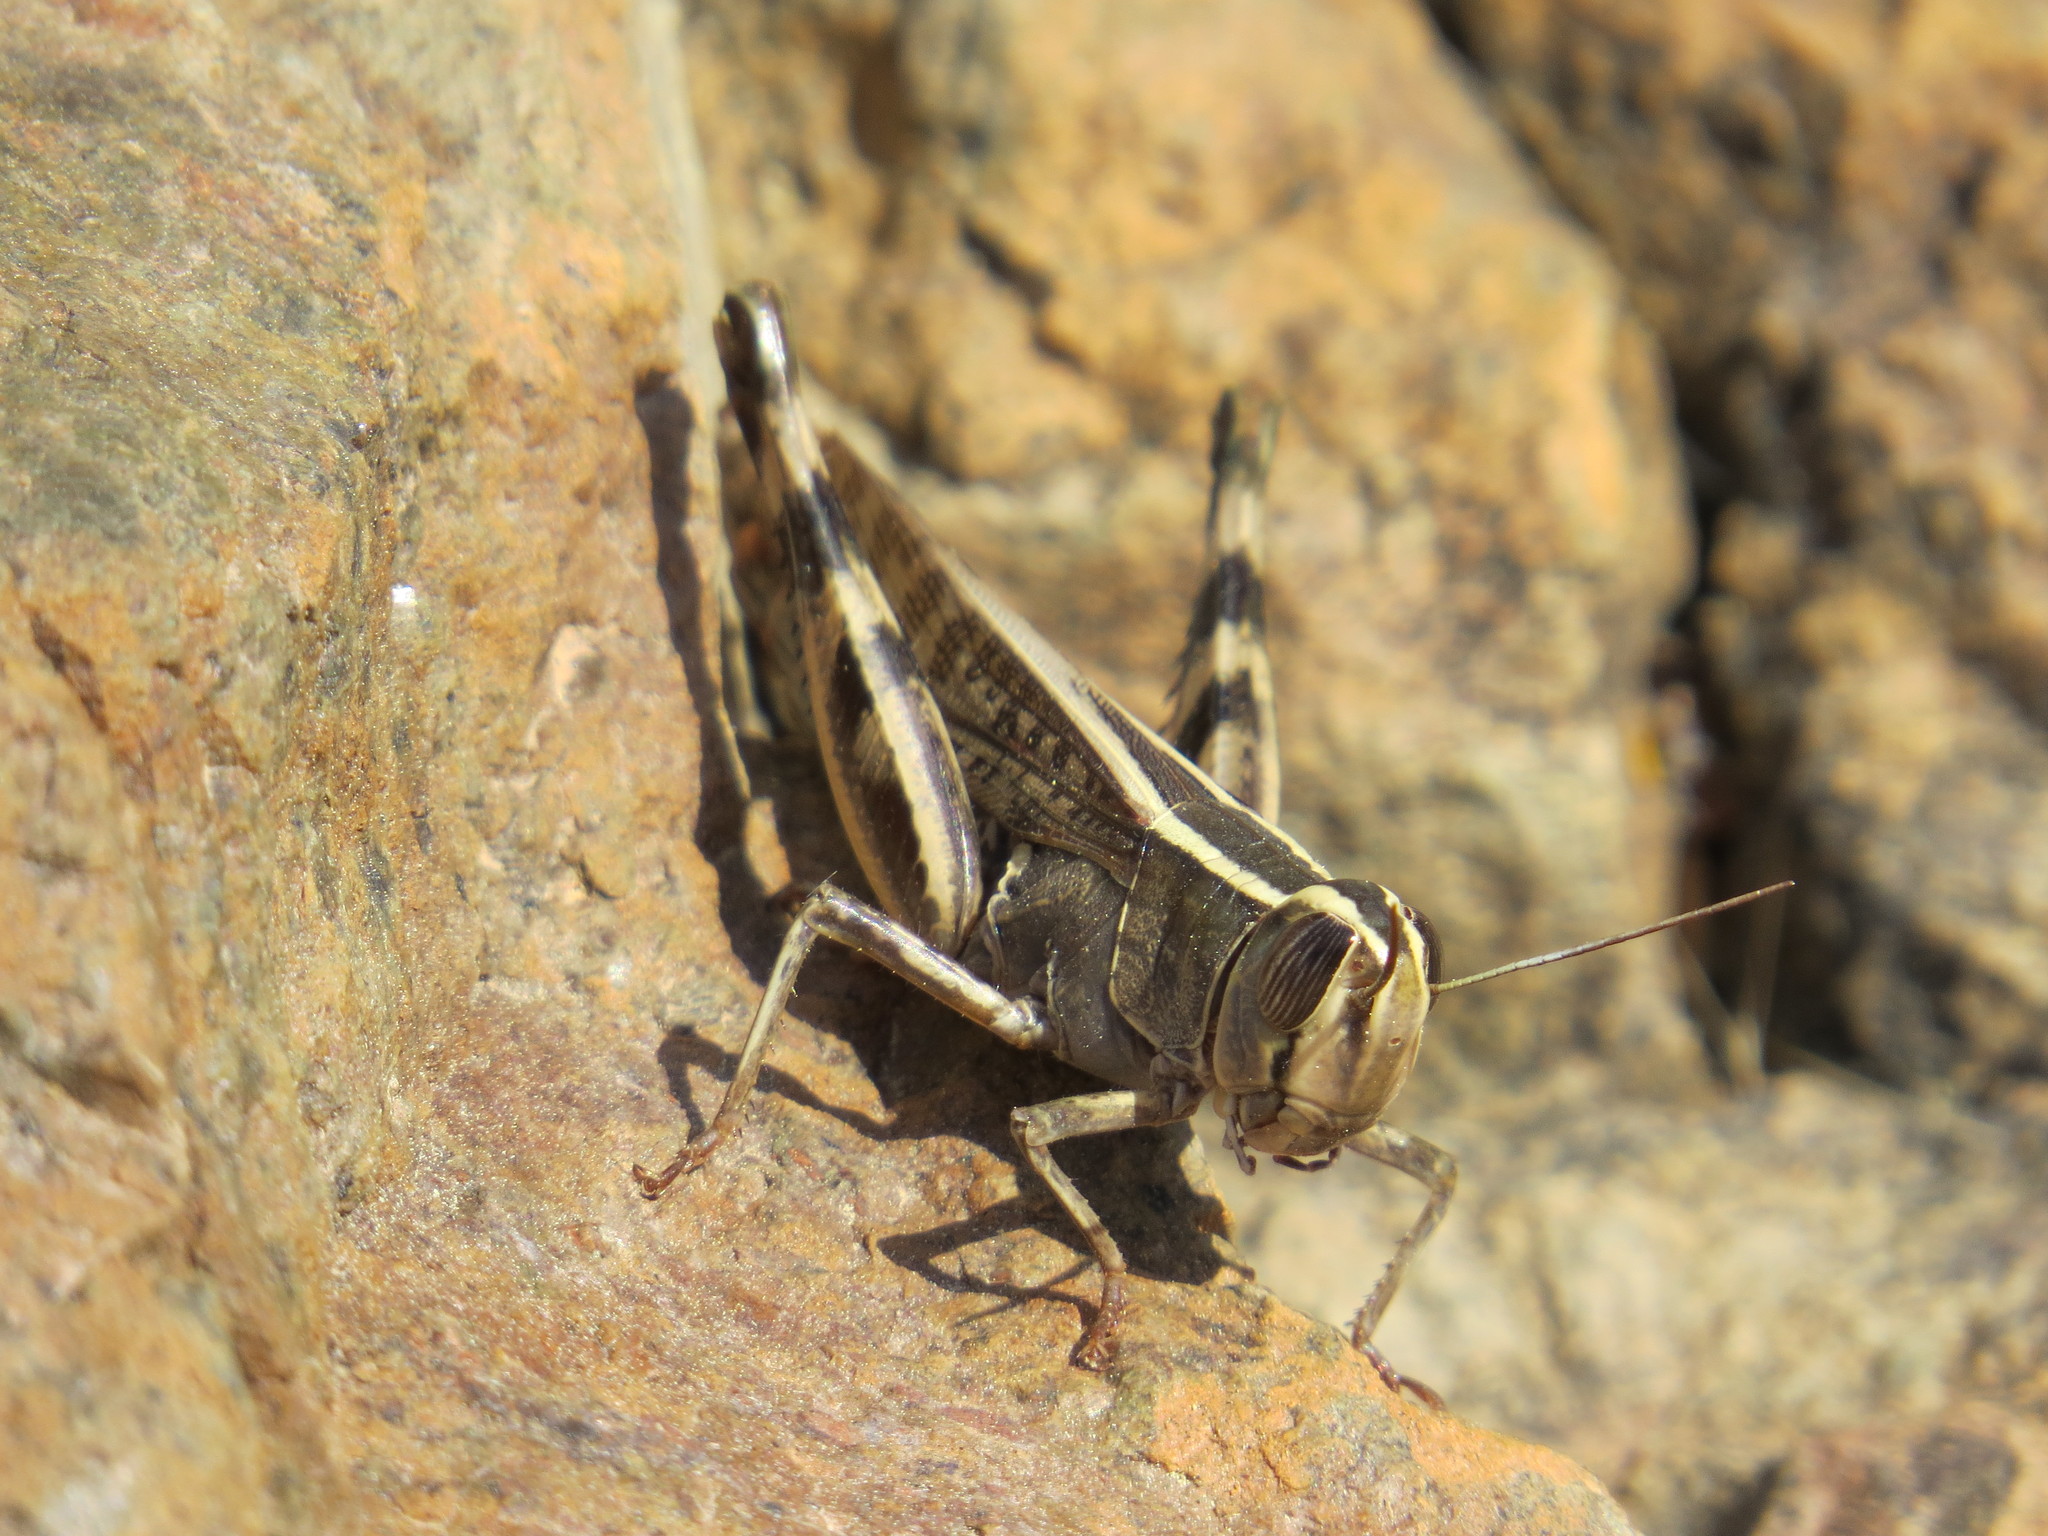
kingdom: Animalia
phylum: Arthropoda
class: Insecta
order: Orthoptera
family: Acrididae
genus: Heteracris
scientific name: Heteracris littoralis
